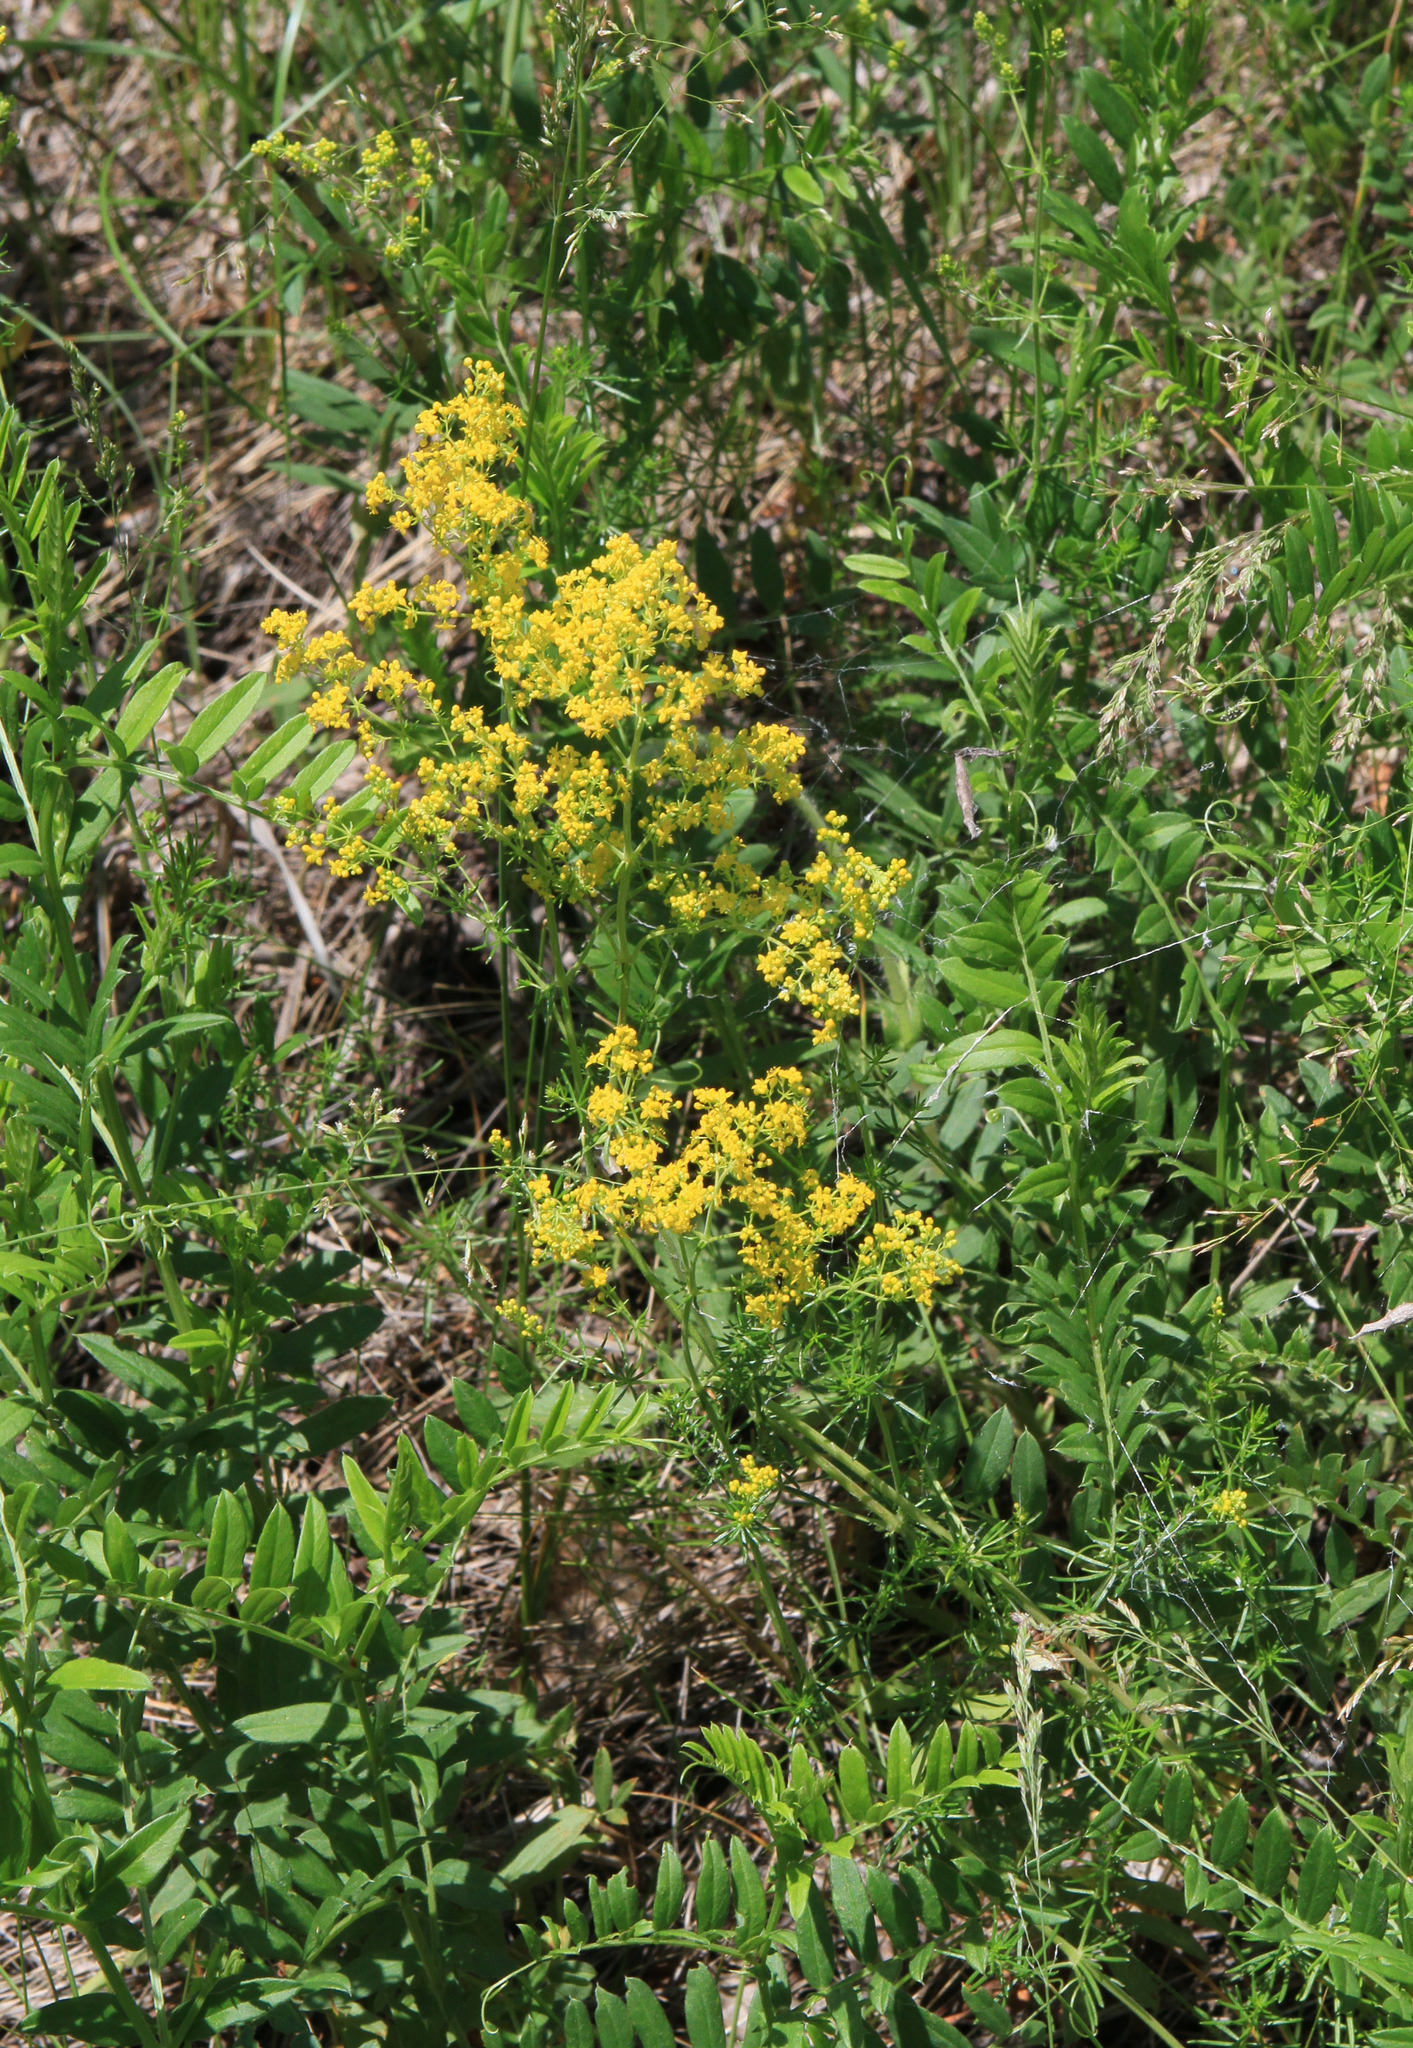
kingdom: Plantae
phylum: Tracheophyta
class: Magnoliopsida
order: Gentianales
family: Rubiaceae
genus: Galium
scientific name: Galium verum
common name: Lady's bedstraw
